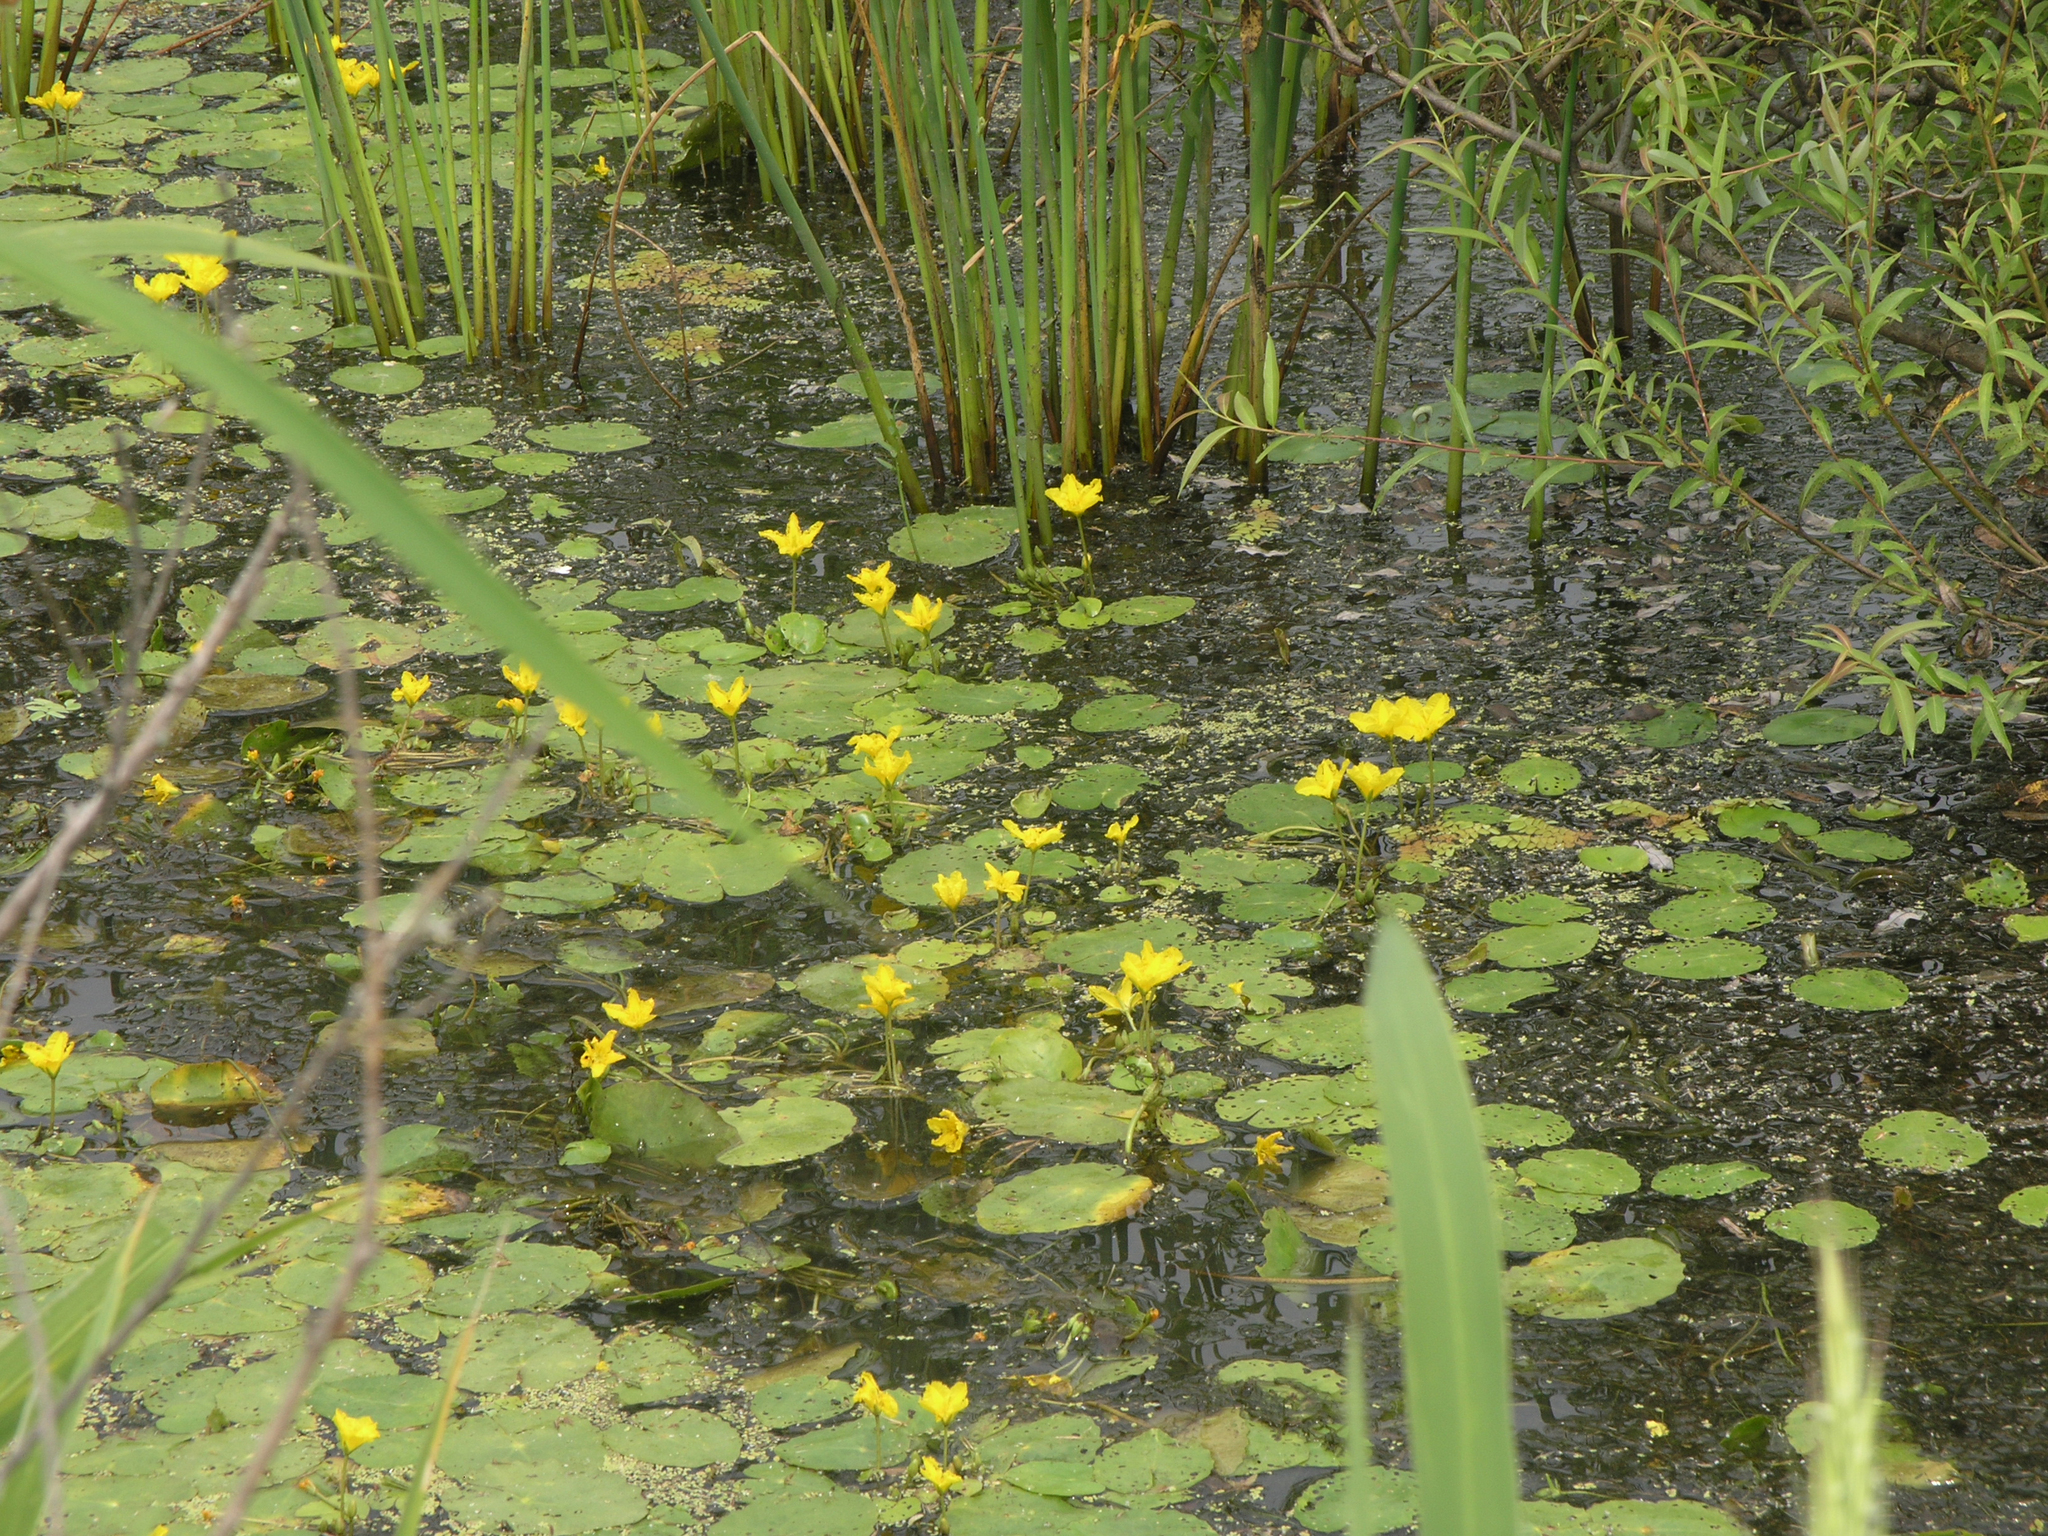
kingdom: Plantae
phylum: Tracheophyta
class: Magnoliopsida
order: Asterales
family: Menyanthaceae
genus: Nymphoides
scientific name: Nymphoides peltata
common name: Fringed water-lily
